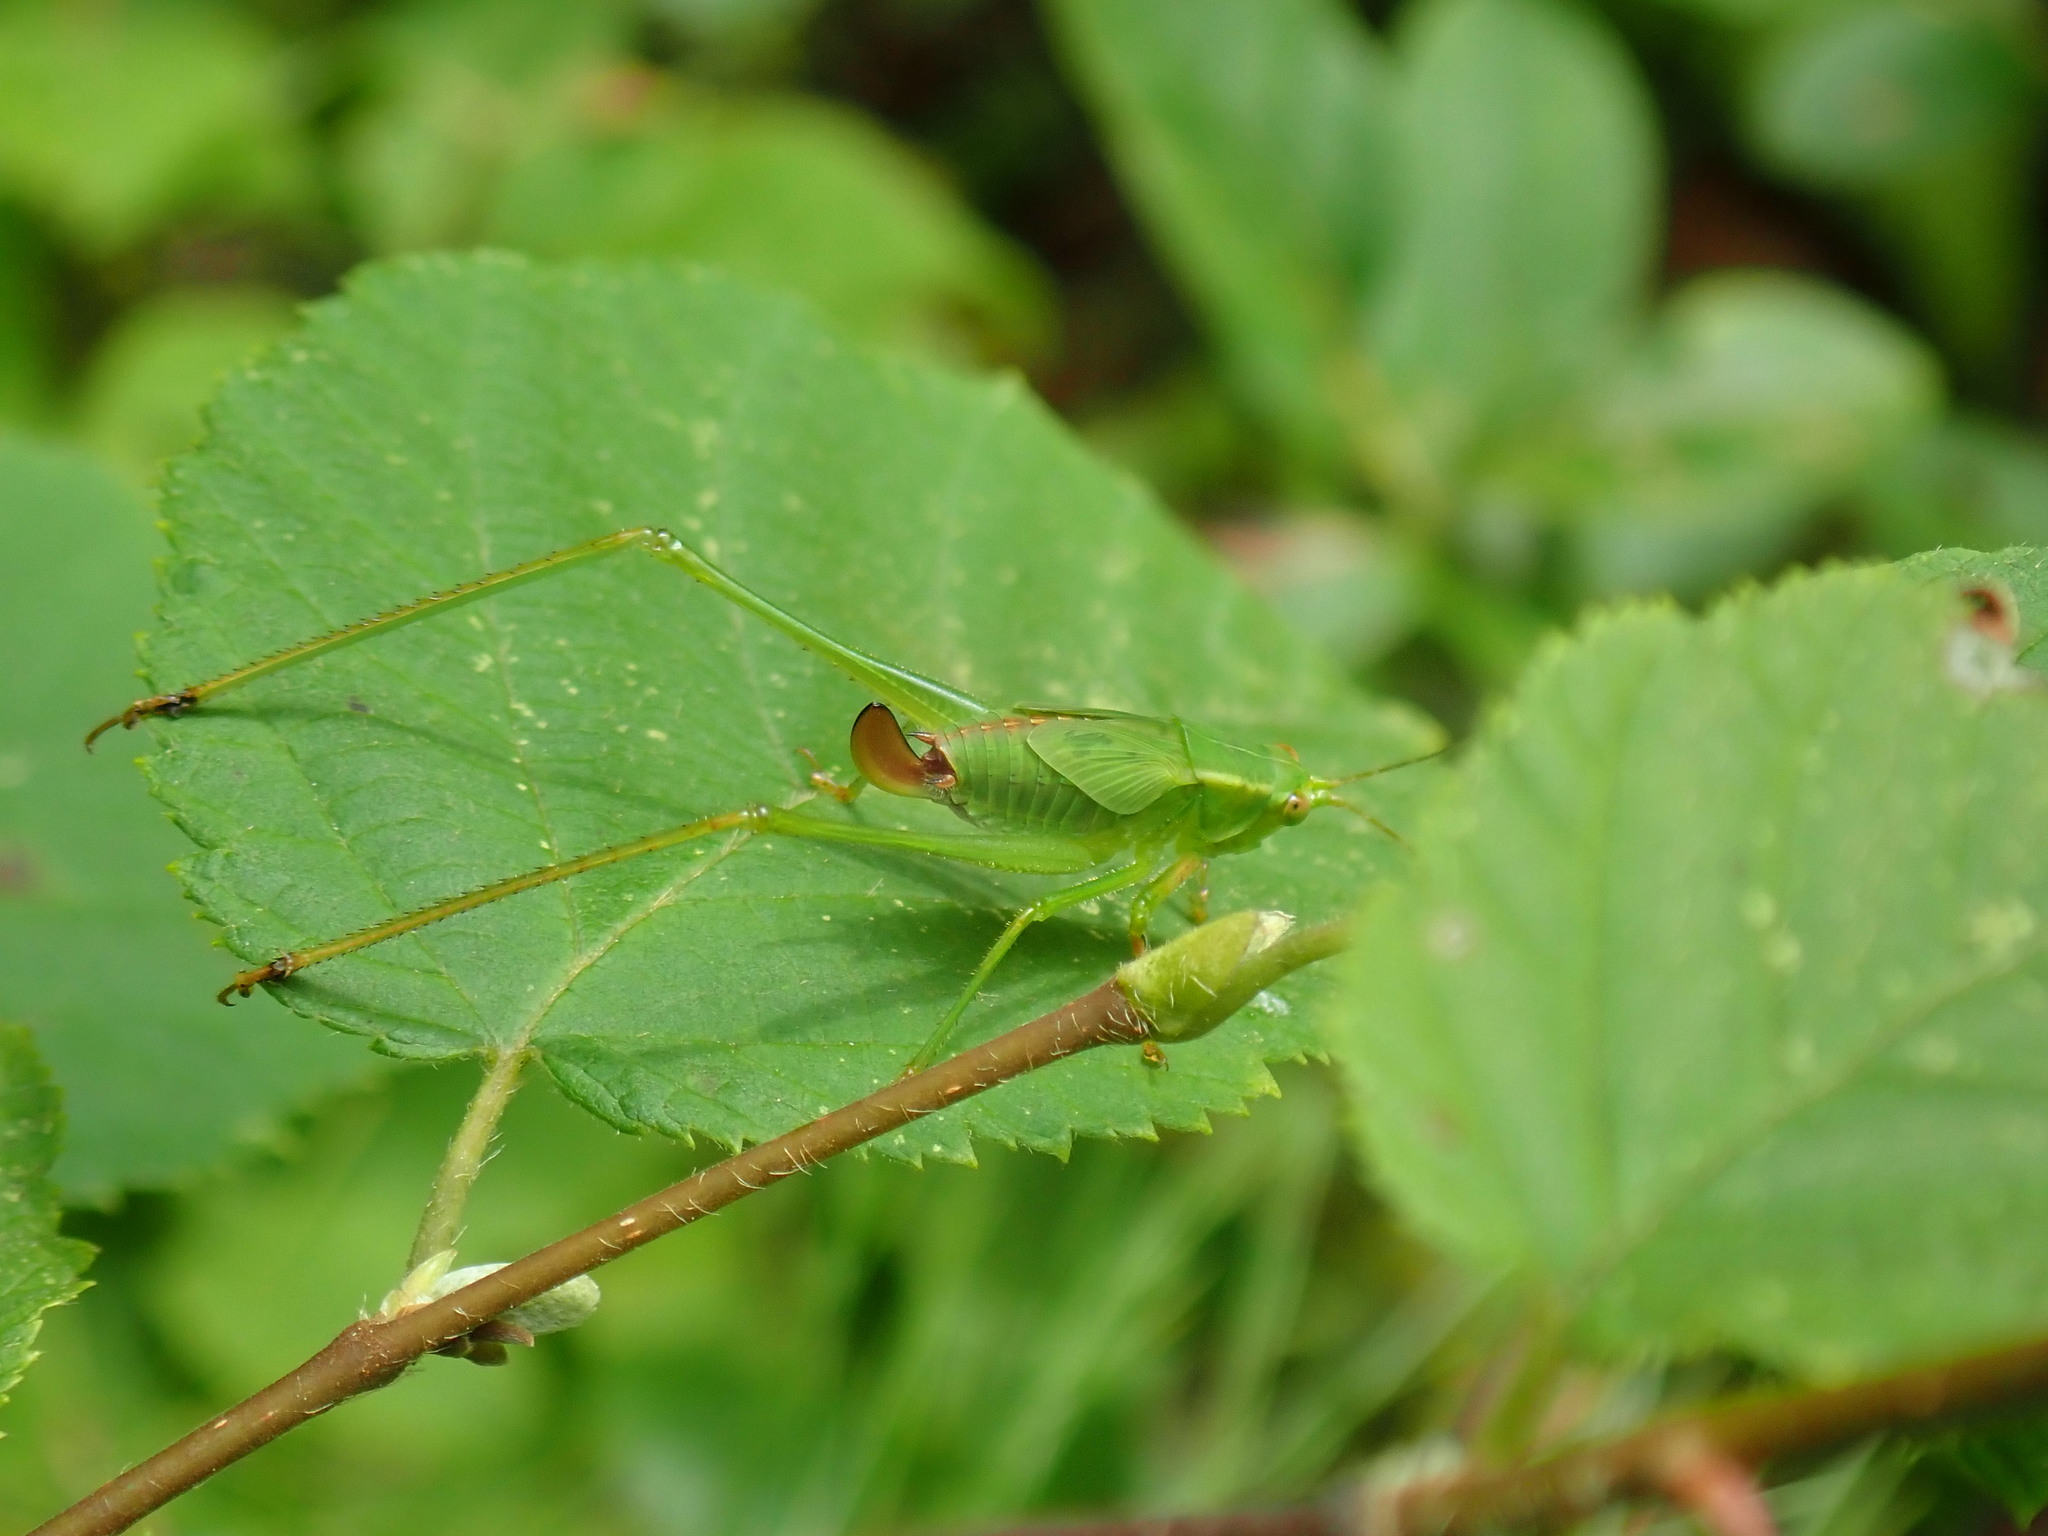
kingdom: Animalia
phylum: Arthropoda
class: Insecta
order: Orthoptera
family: Tettigoniidae
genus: Scudderia
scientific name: Scudderia furcata
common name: Fork-tailed bush katydid
